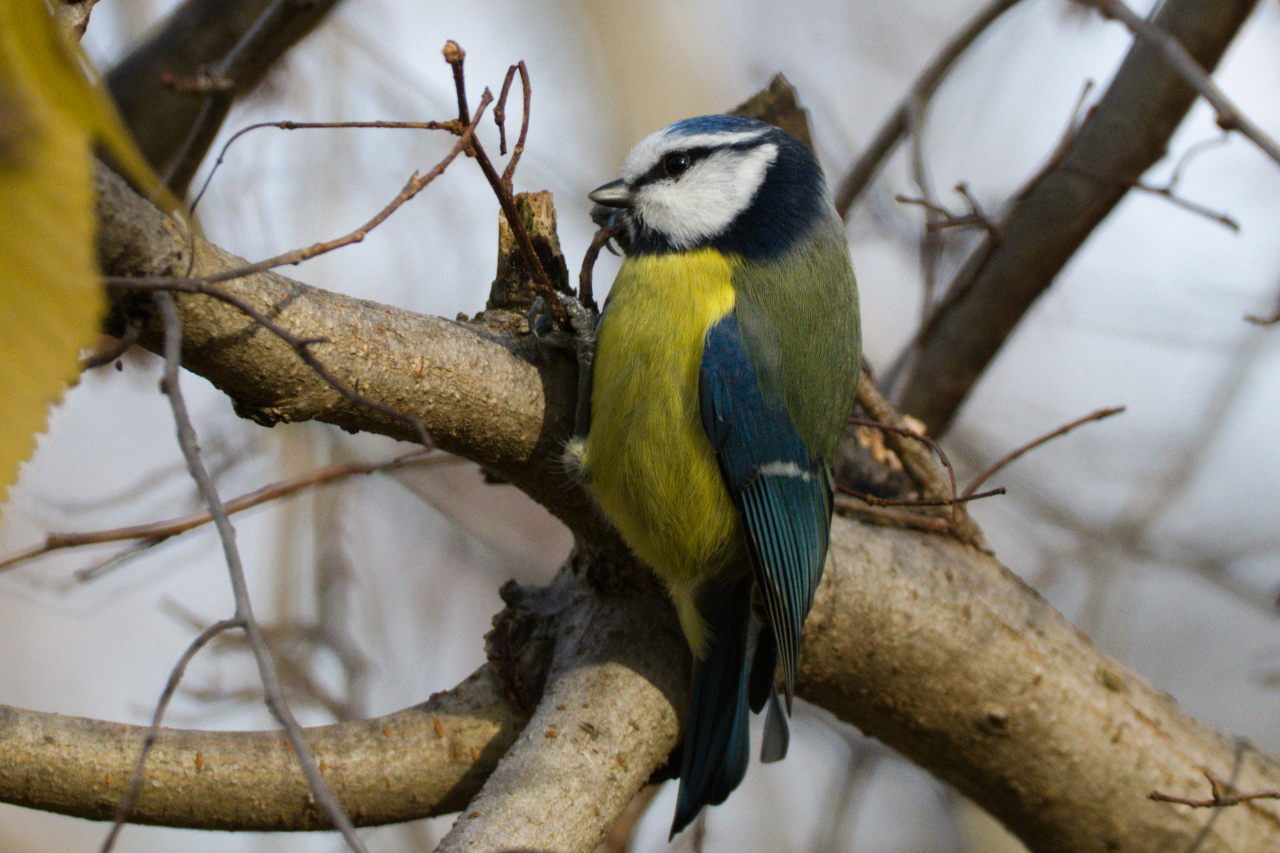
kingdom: Animalia
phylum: Chordata
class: Aves
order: Passeriformes
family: Paridae
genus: Cyanistes
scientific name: Cyanistes caeruleus
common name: Eurasian blue tit
